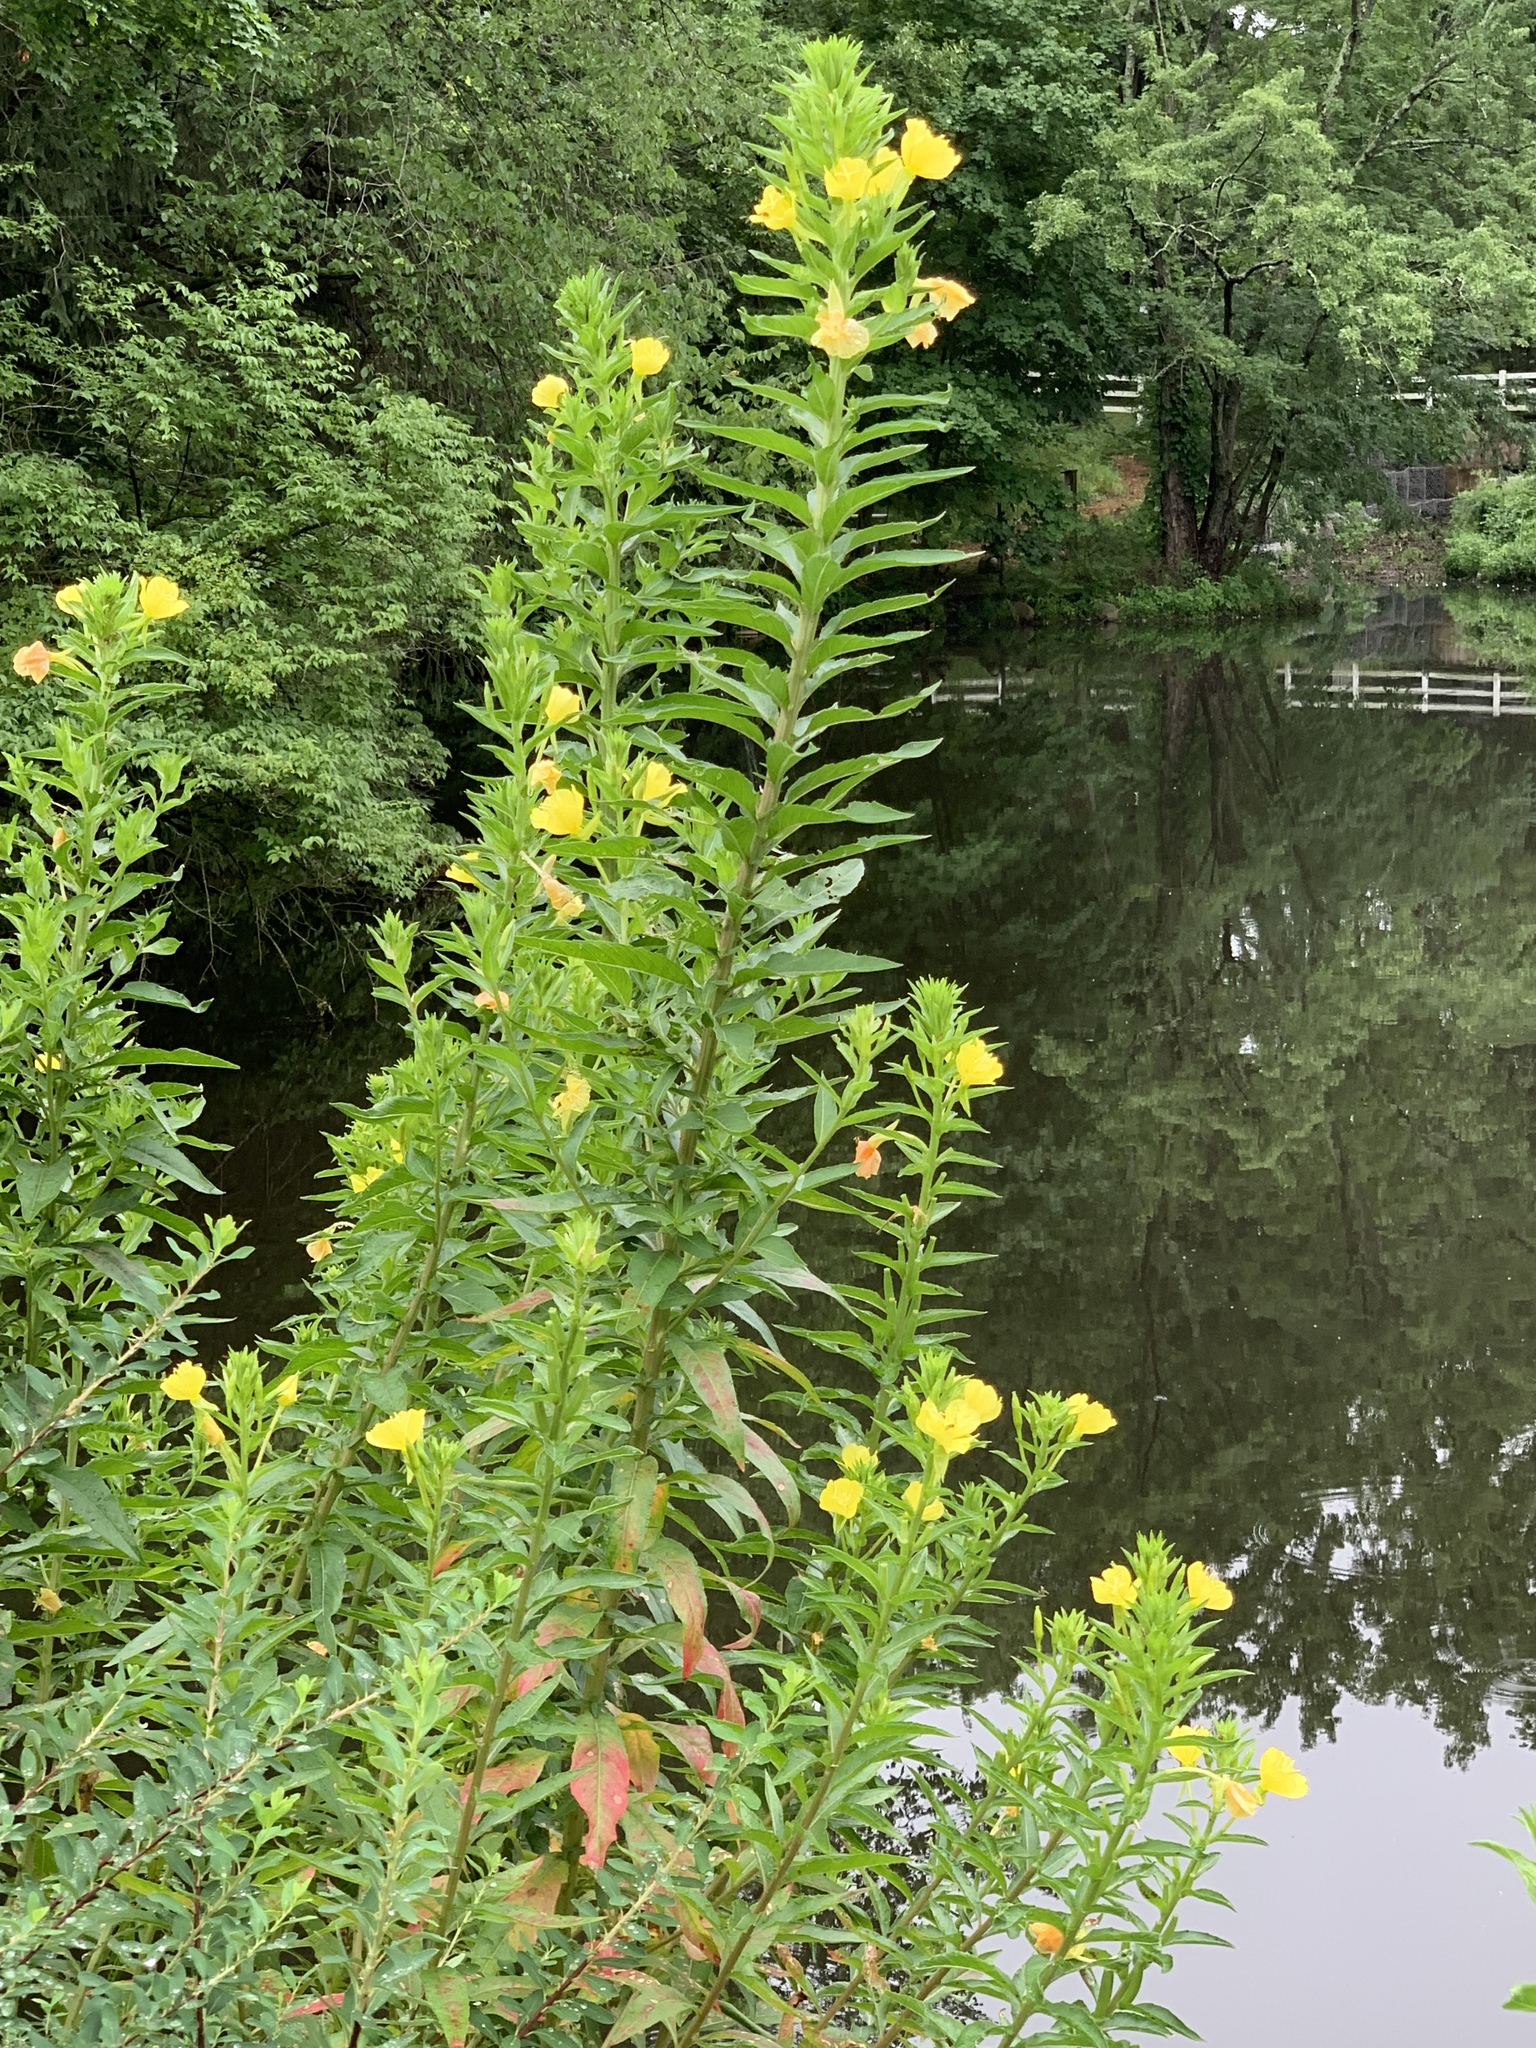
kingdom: Plantae
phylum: Tracheophyta
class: Magnoliopsida
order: Myrtales
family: Onagraceae
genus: Oenothera
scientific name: Oenothera biennis
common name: Common evening-primrose
